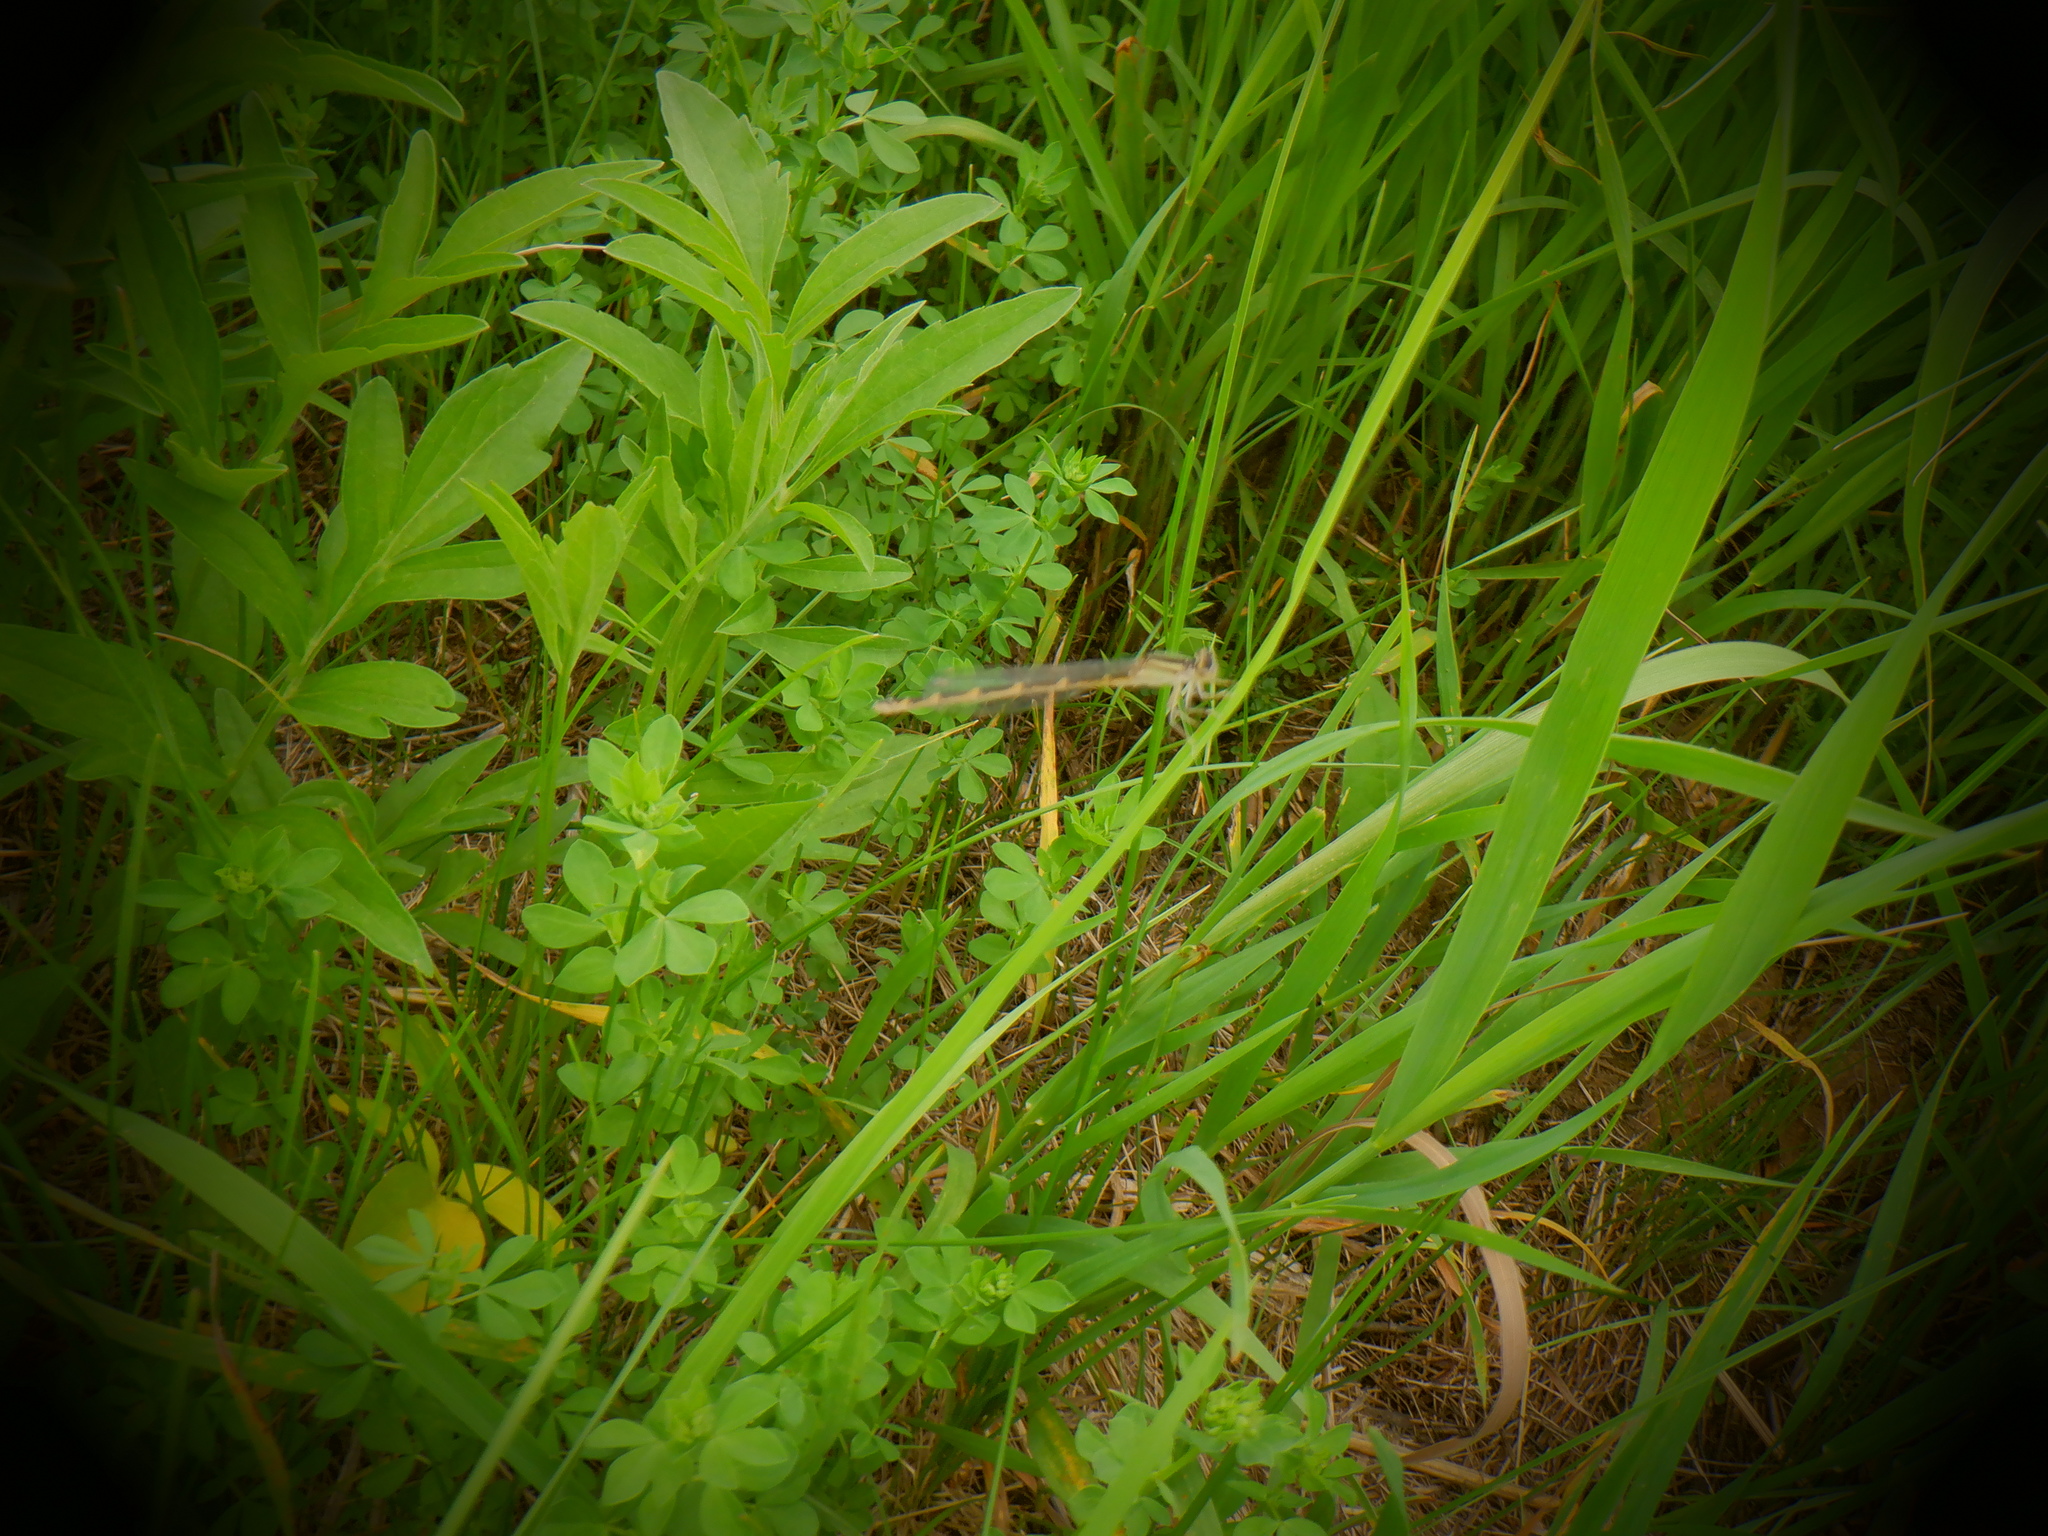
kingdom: Animalia
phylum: Arthropoda
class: Insecta
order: Odonata
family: Coenagrionidae
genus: Enallagma
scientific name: Enallagma
